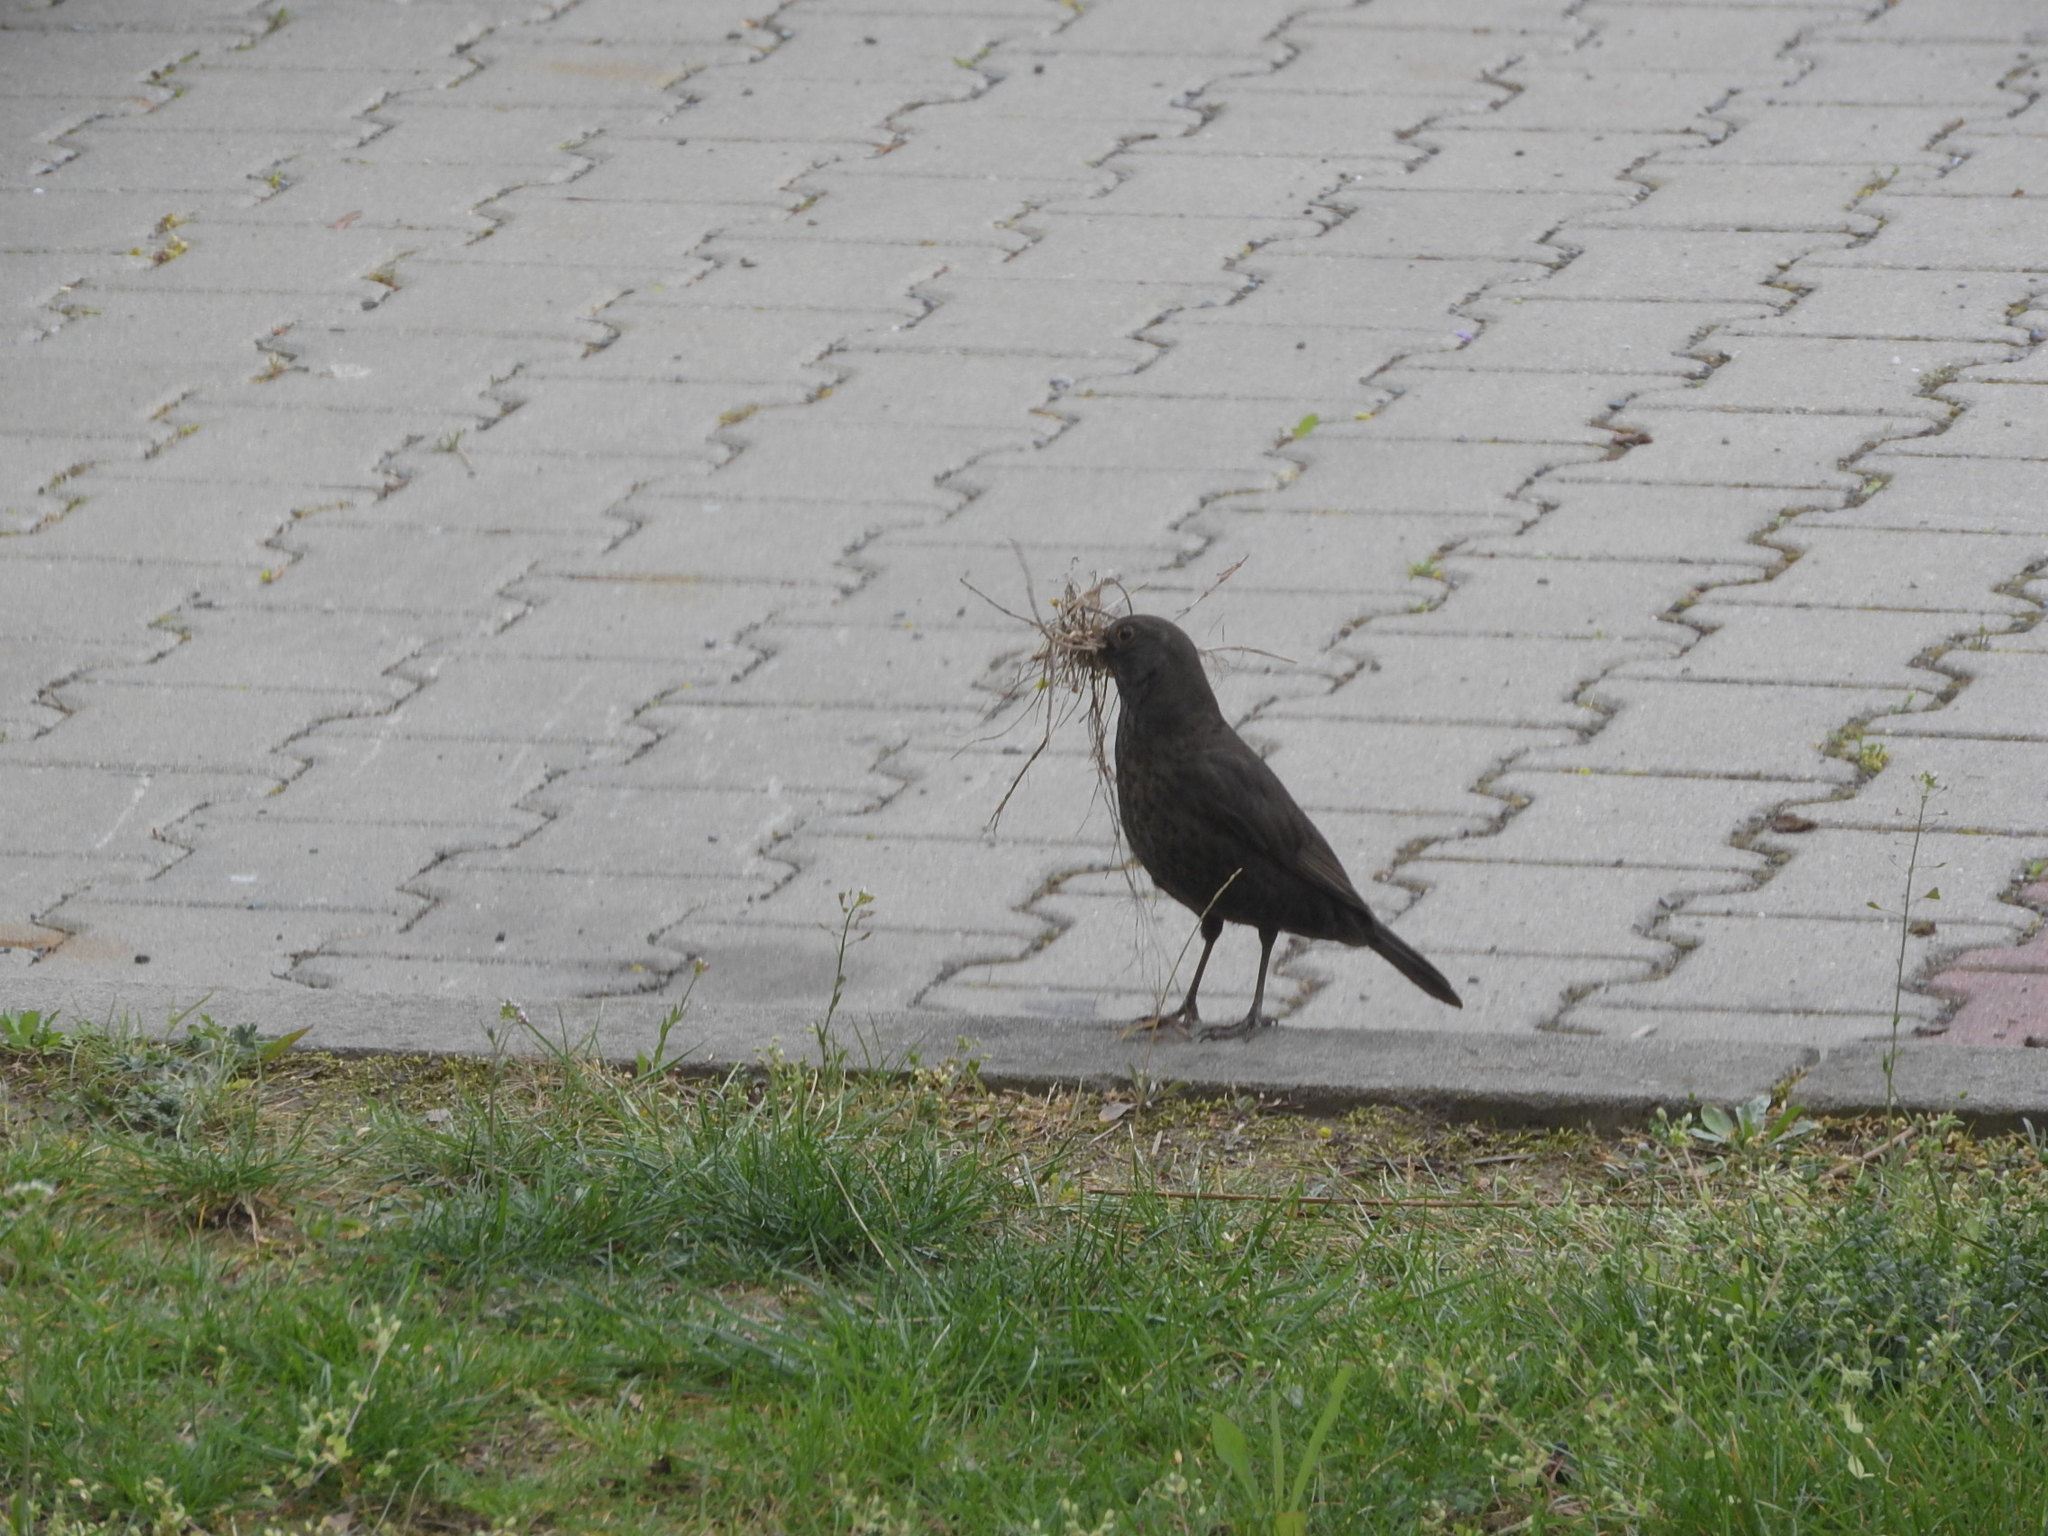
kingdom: Animalia
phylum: Chordata
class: Aves
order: Passeriformes
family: Turdidae
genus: Turdus
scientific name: Turdus merula
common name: Common blackbird
